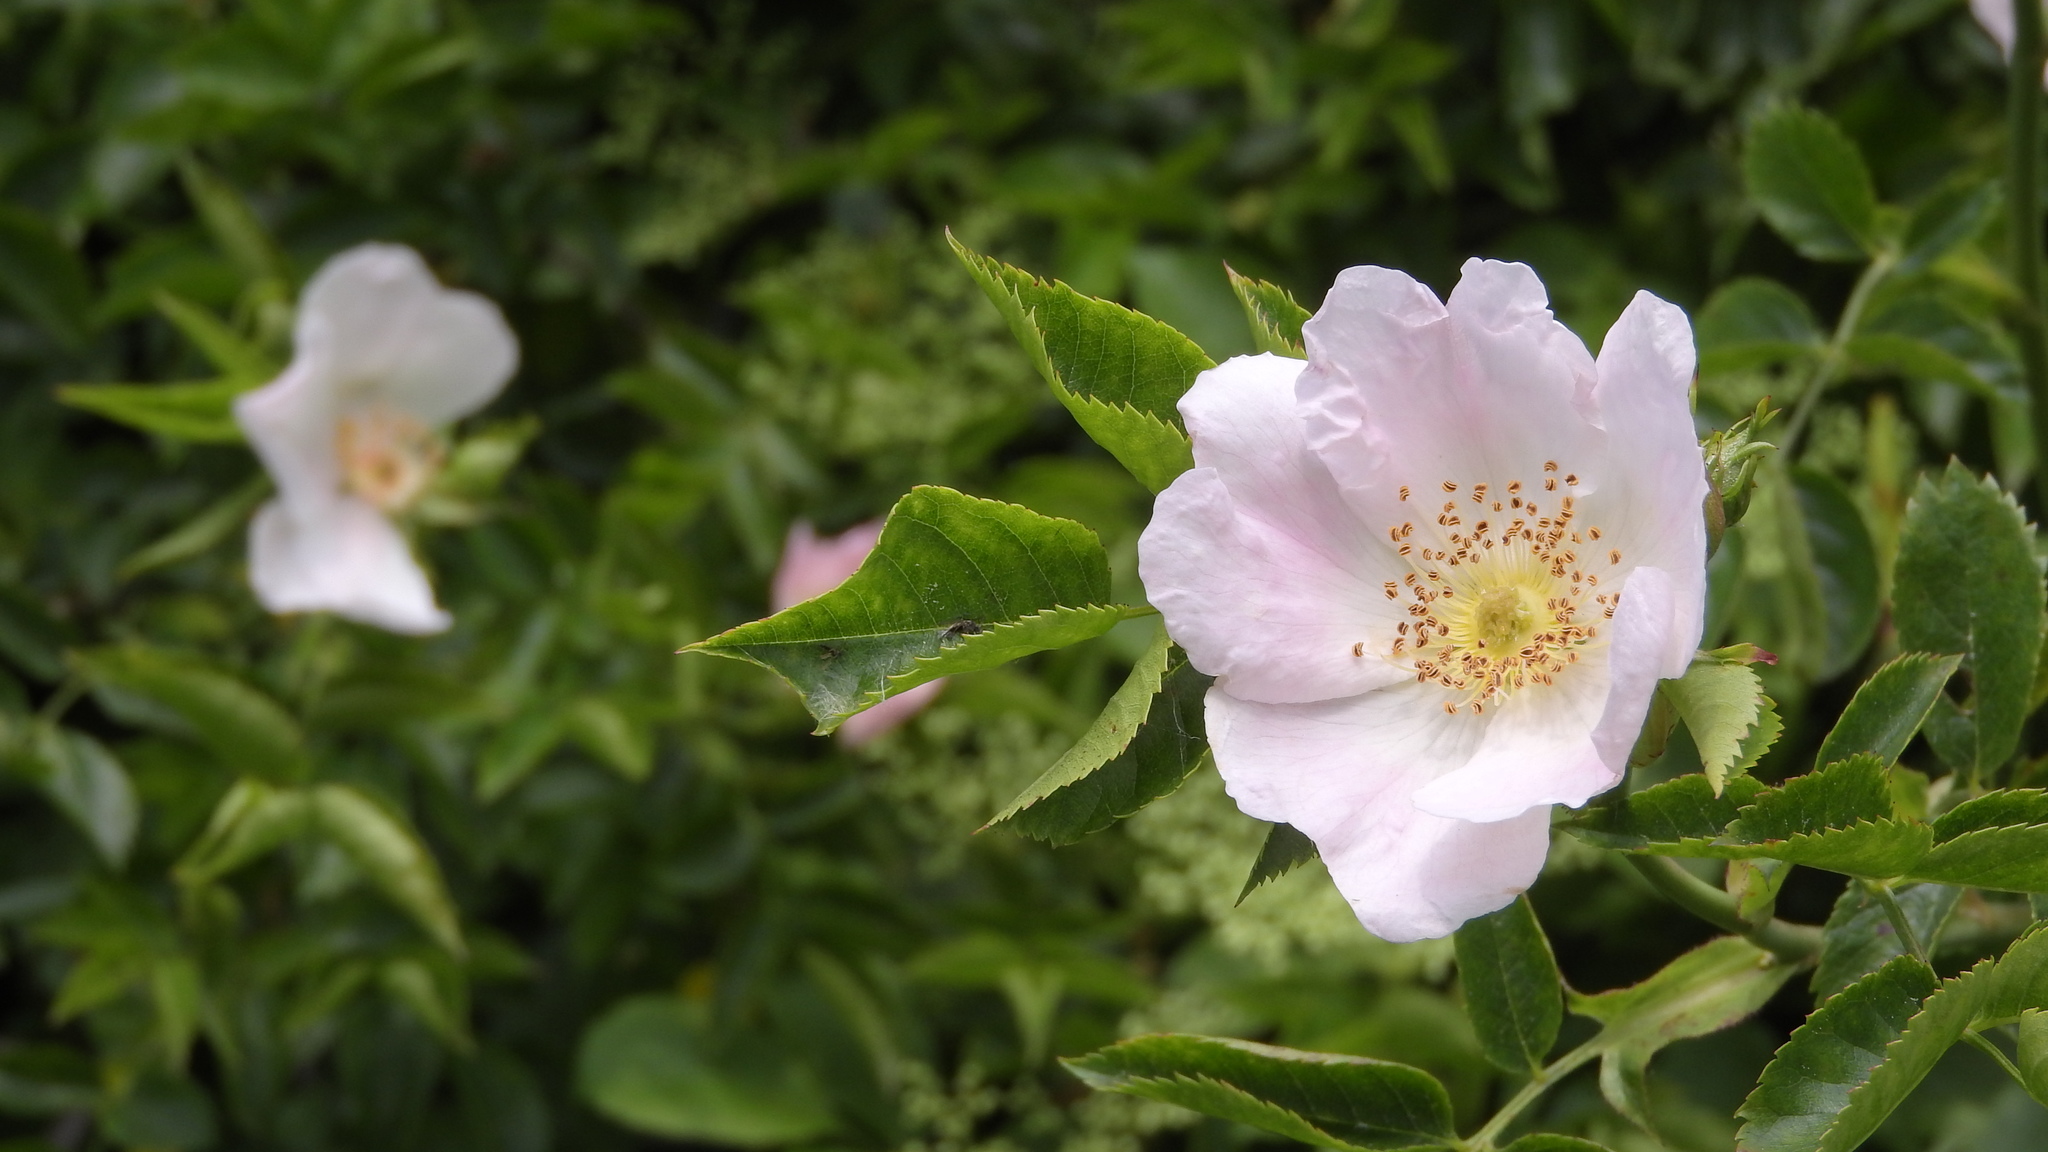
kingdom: Plantae
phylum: Tracheophyta
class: Magnoliopsida
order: Rosales
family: Rosaceae
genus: Rosa
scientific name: Rosa canina
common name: Dog rose
